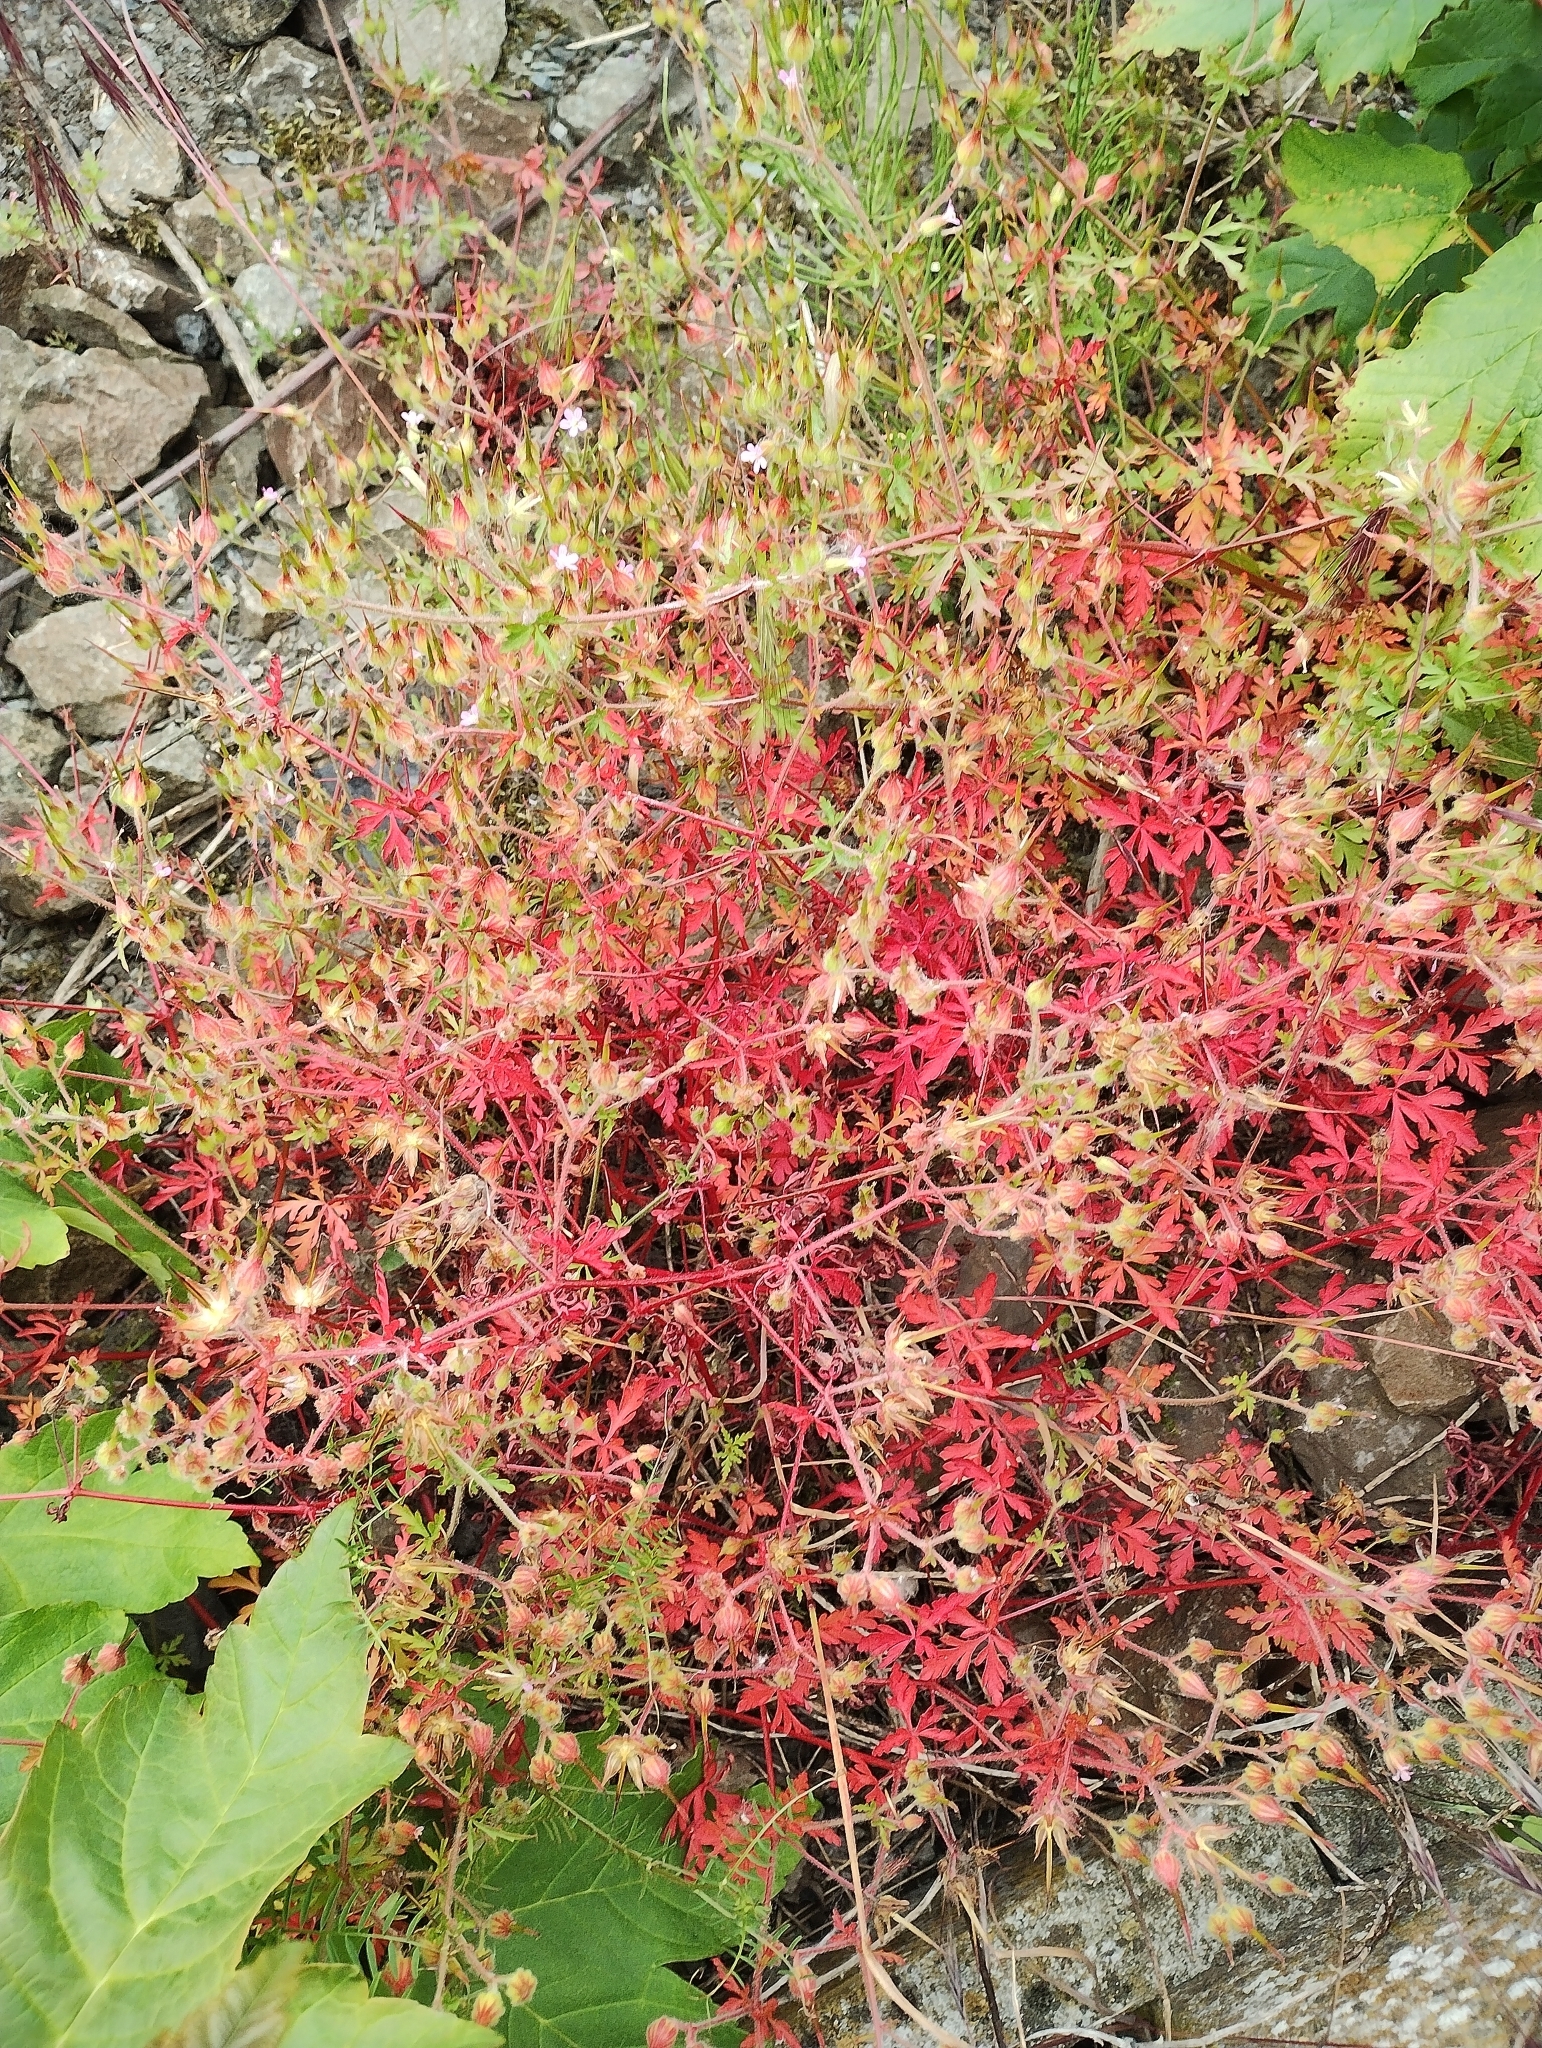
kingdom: Plantae
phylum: Tracheophyta
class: Magnoliopsida
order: Geraniales
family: Geraniaceae
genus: Geranium
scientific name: Geranium purpureum
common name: Little-robin
